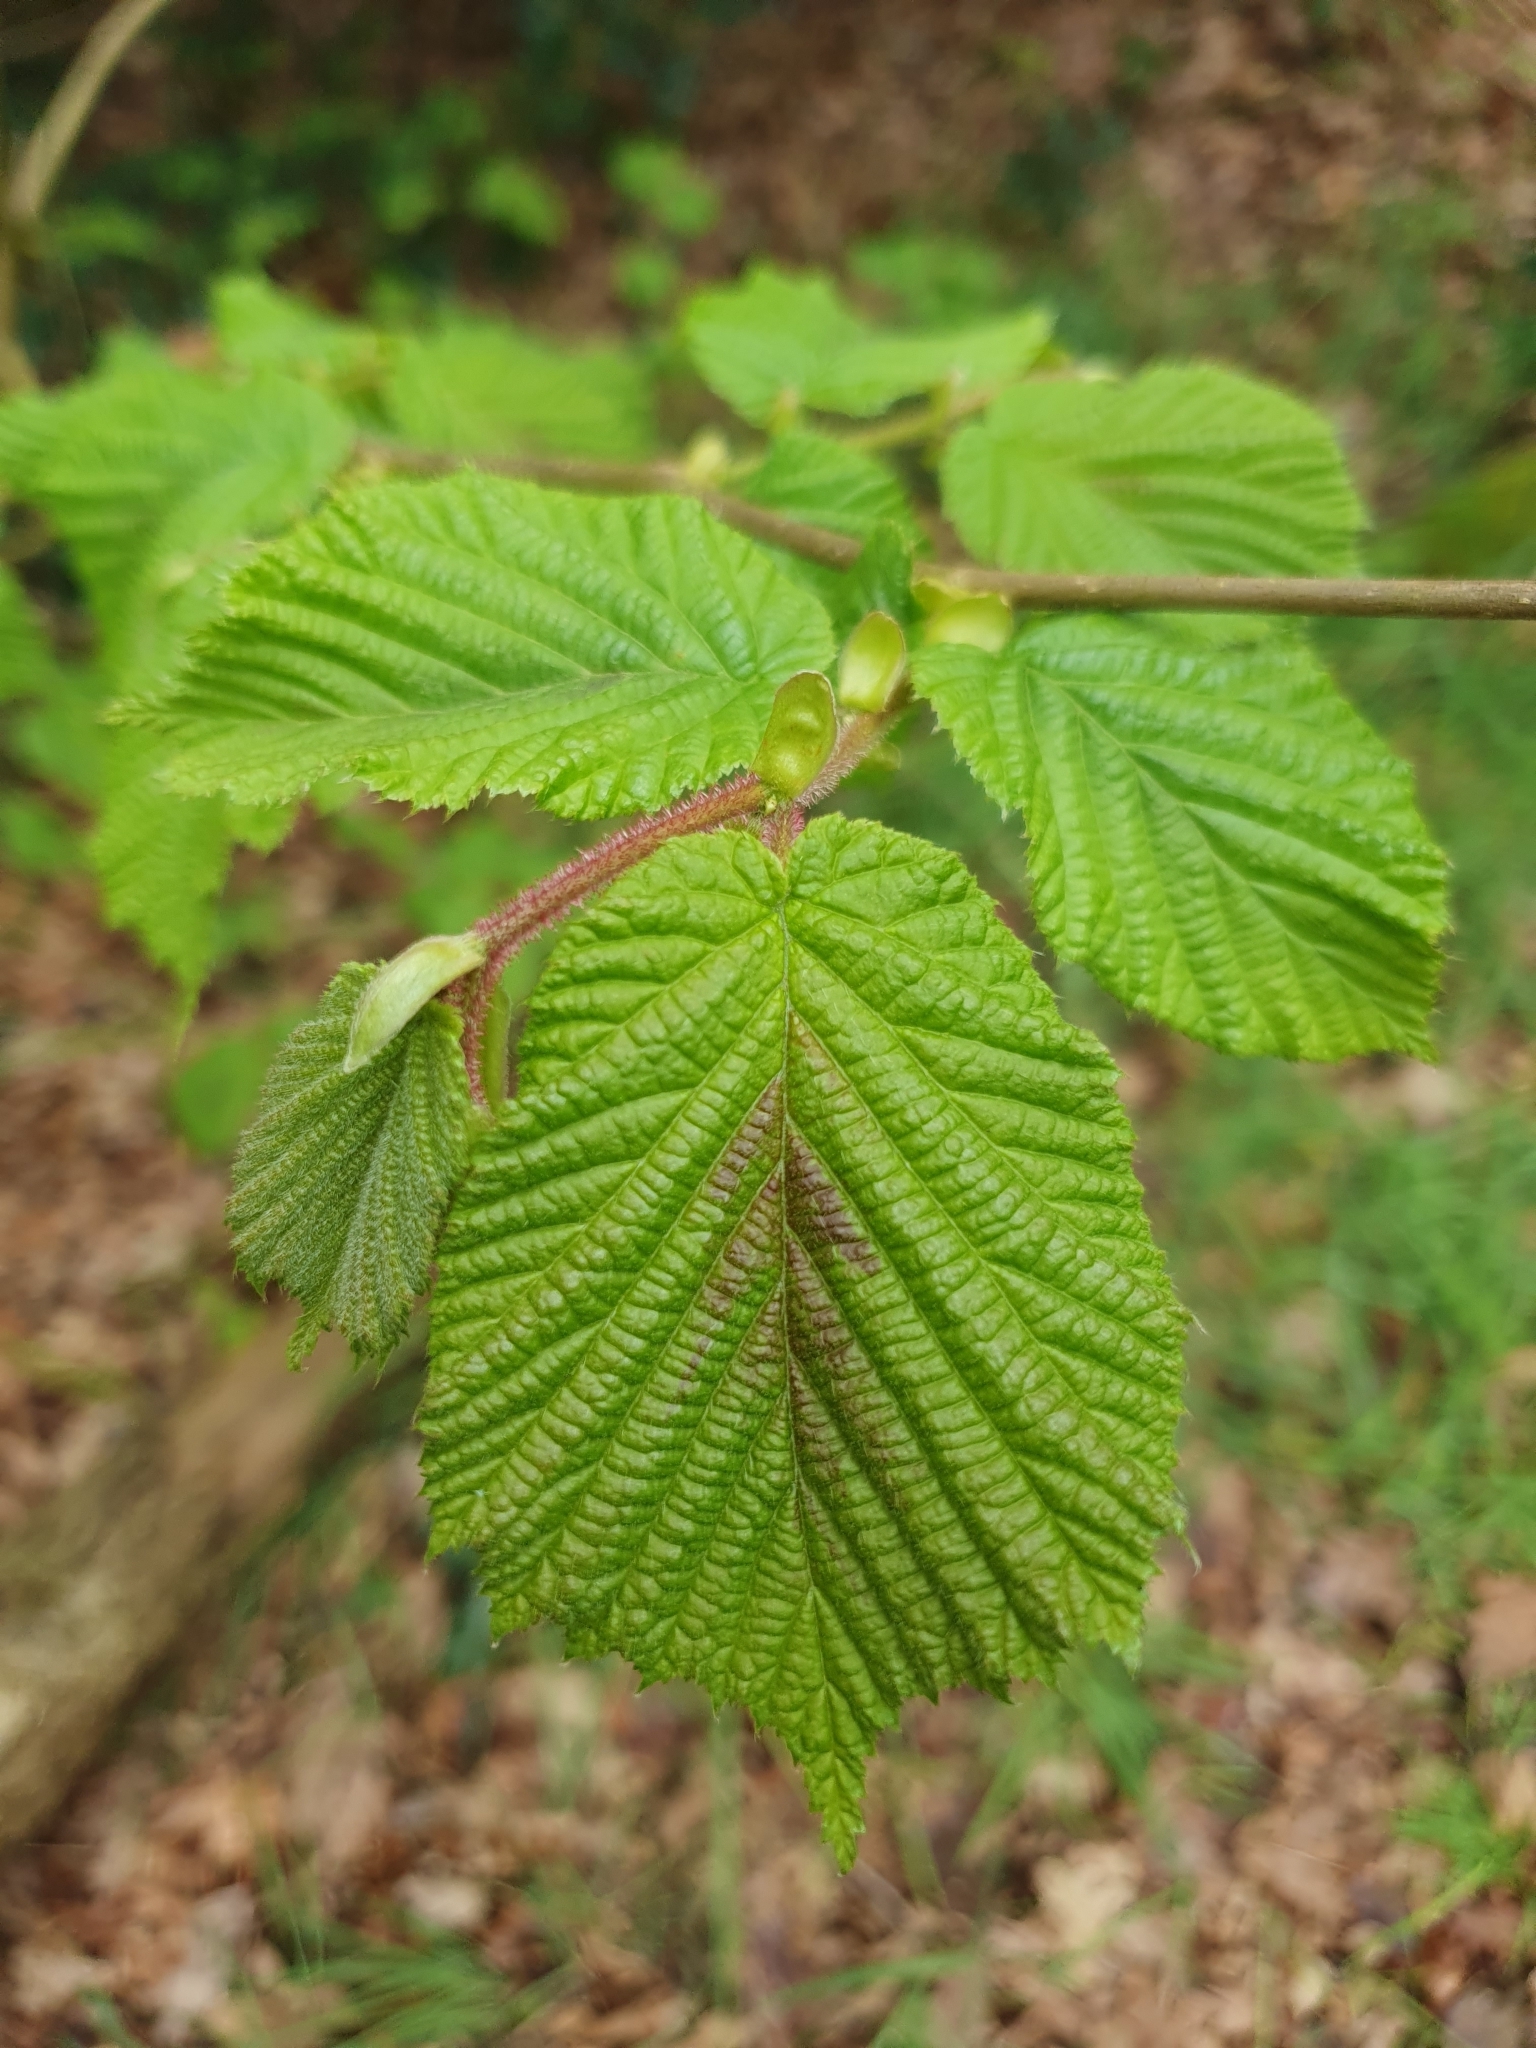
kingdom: Plantae
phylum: Tracheophyta
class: Magnoliopsida
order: Fagales
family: Betulaceae
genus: Corylus
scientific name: Corylus avellana
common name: European hazel
